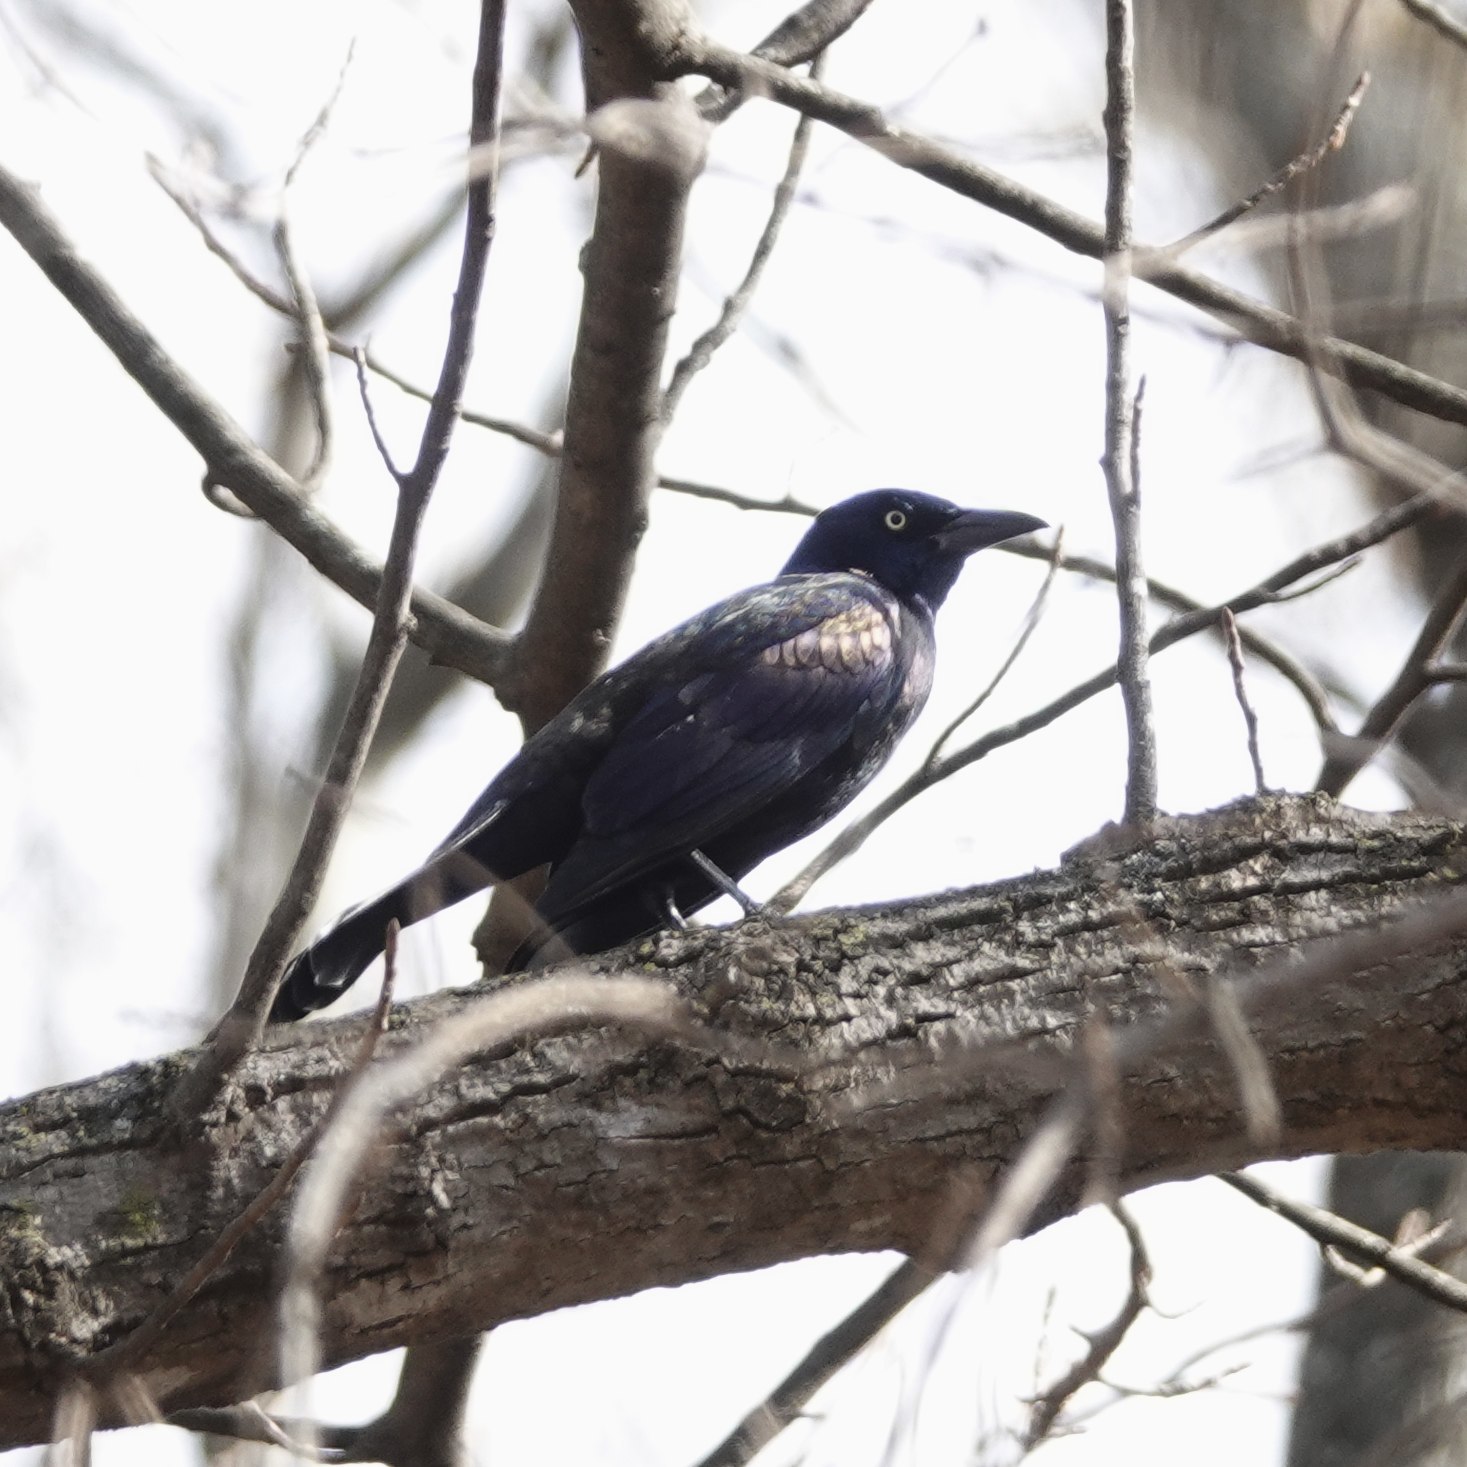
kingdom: Animalia
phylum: Chordata
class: Aves
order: Passeriformes
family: Icteridae
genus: Quiscalus
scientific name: Quiscalus quiscula
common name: Common grackle
